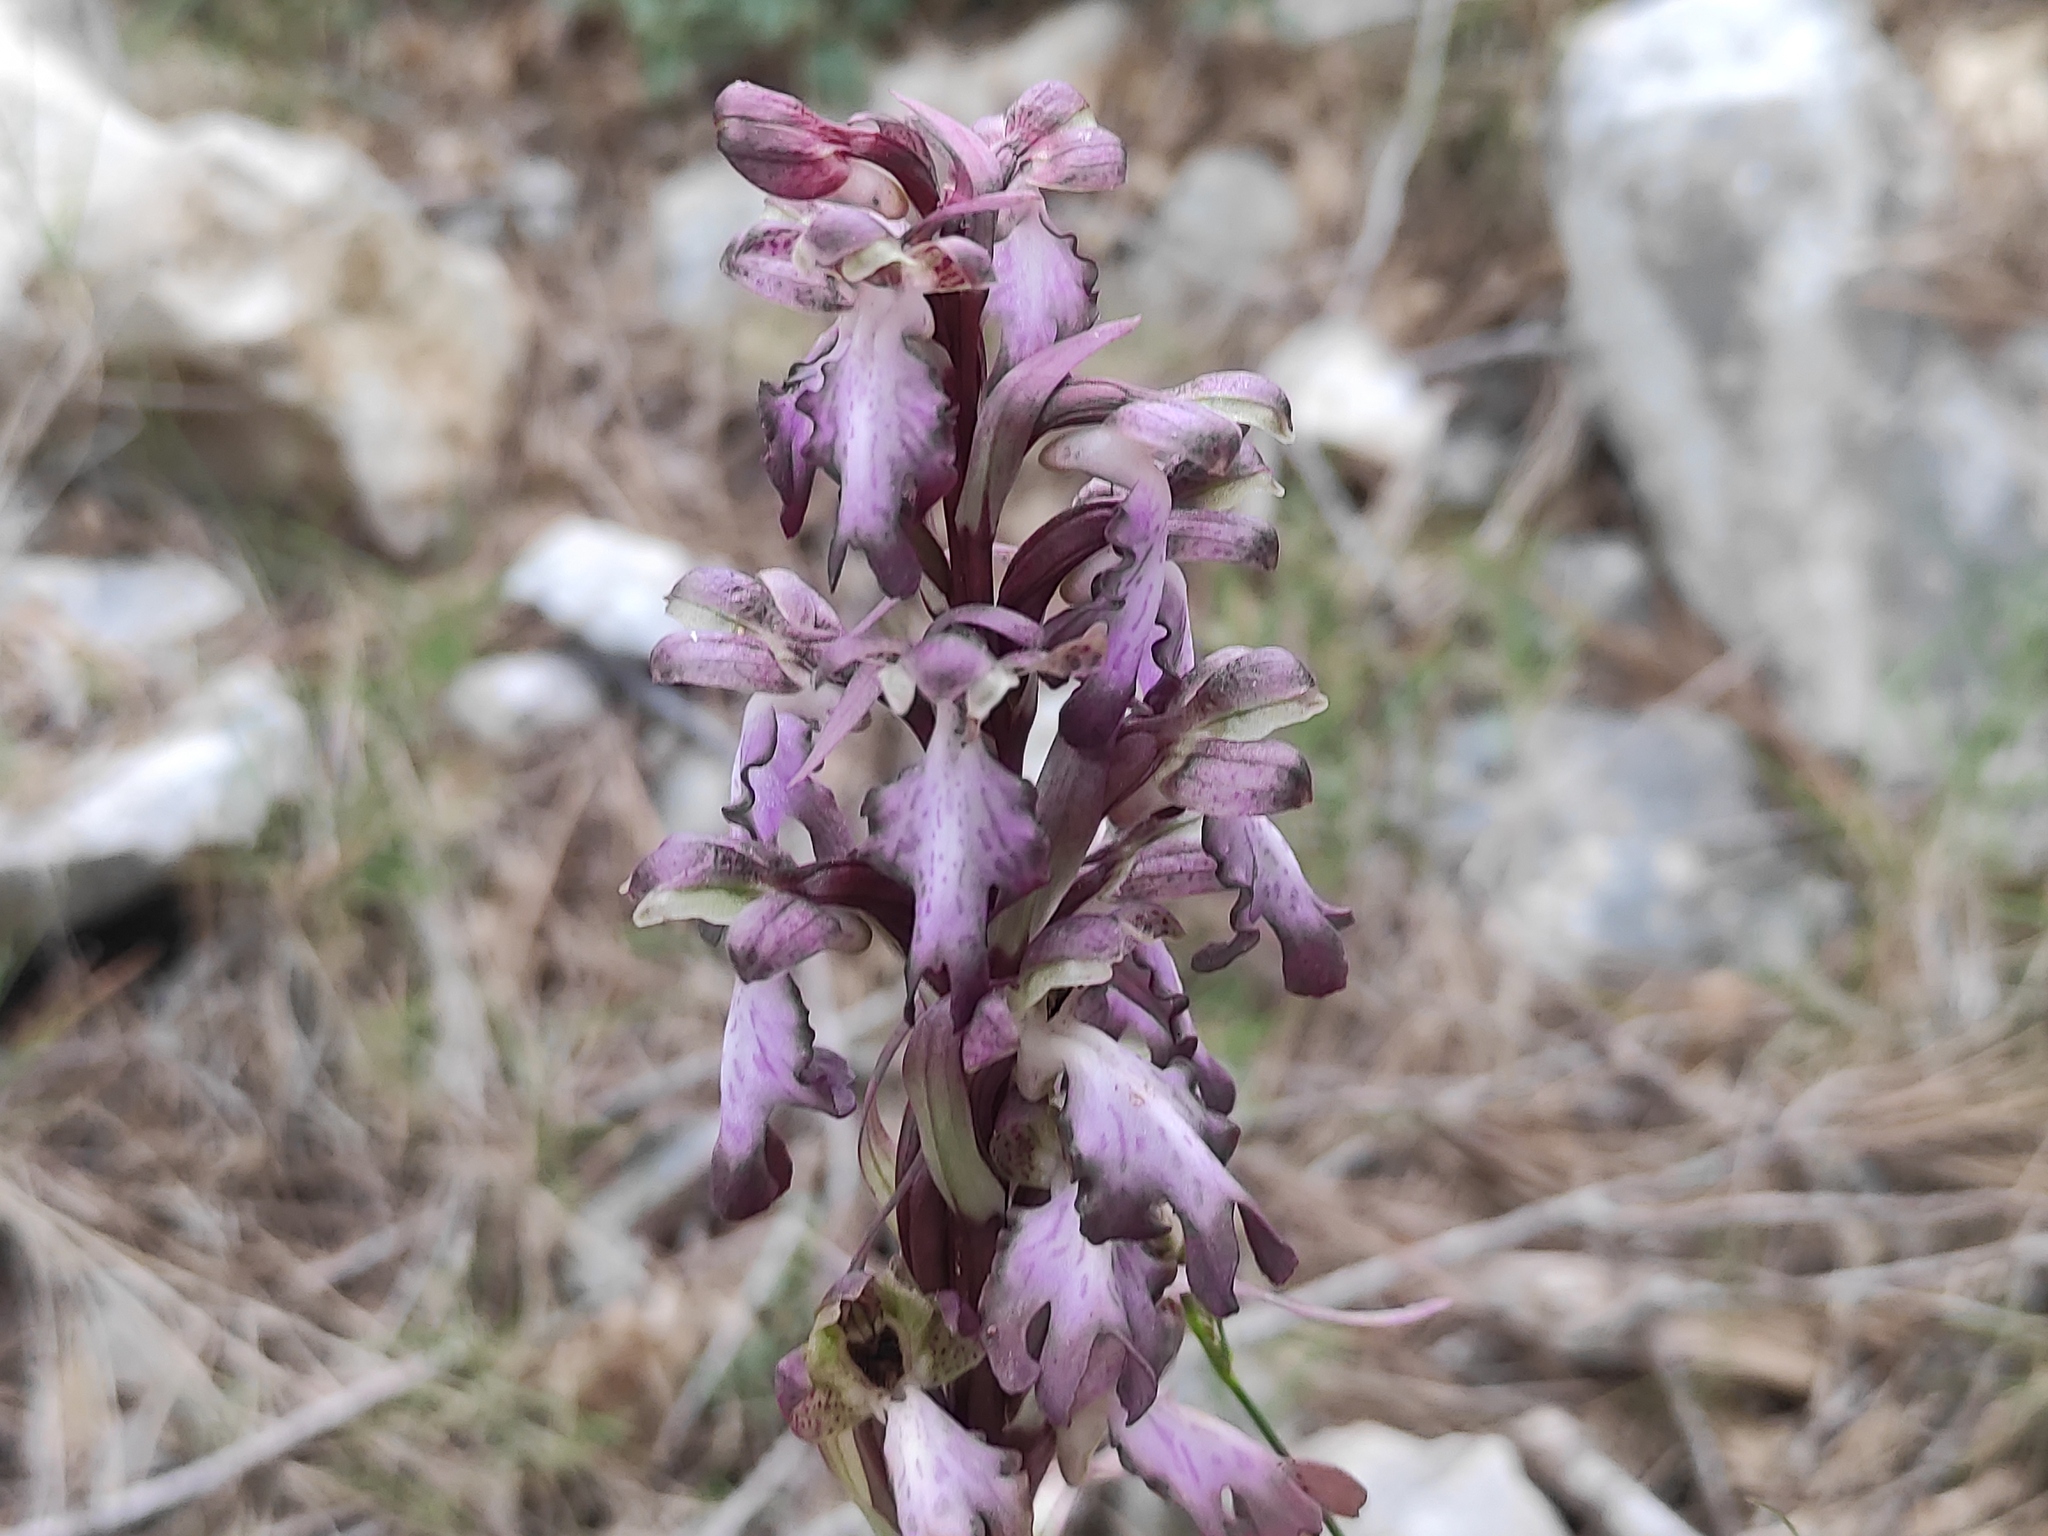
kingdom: Plantae
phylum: Tracheophyta
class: Liliopsida
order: Asparagales
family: Orchidaceae
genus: Himantoglossum
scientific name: Himantoglossum robertianum
